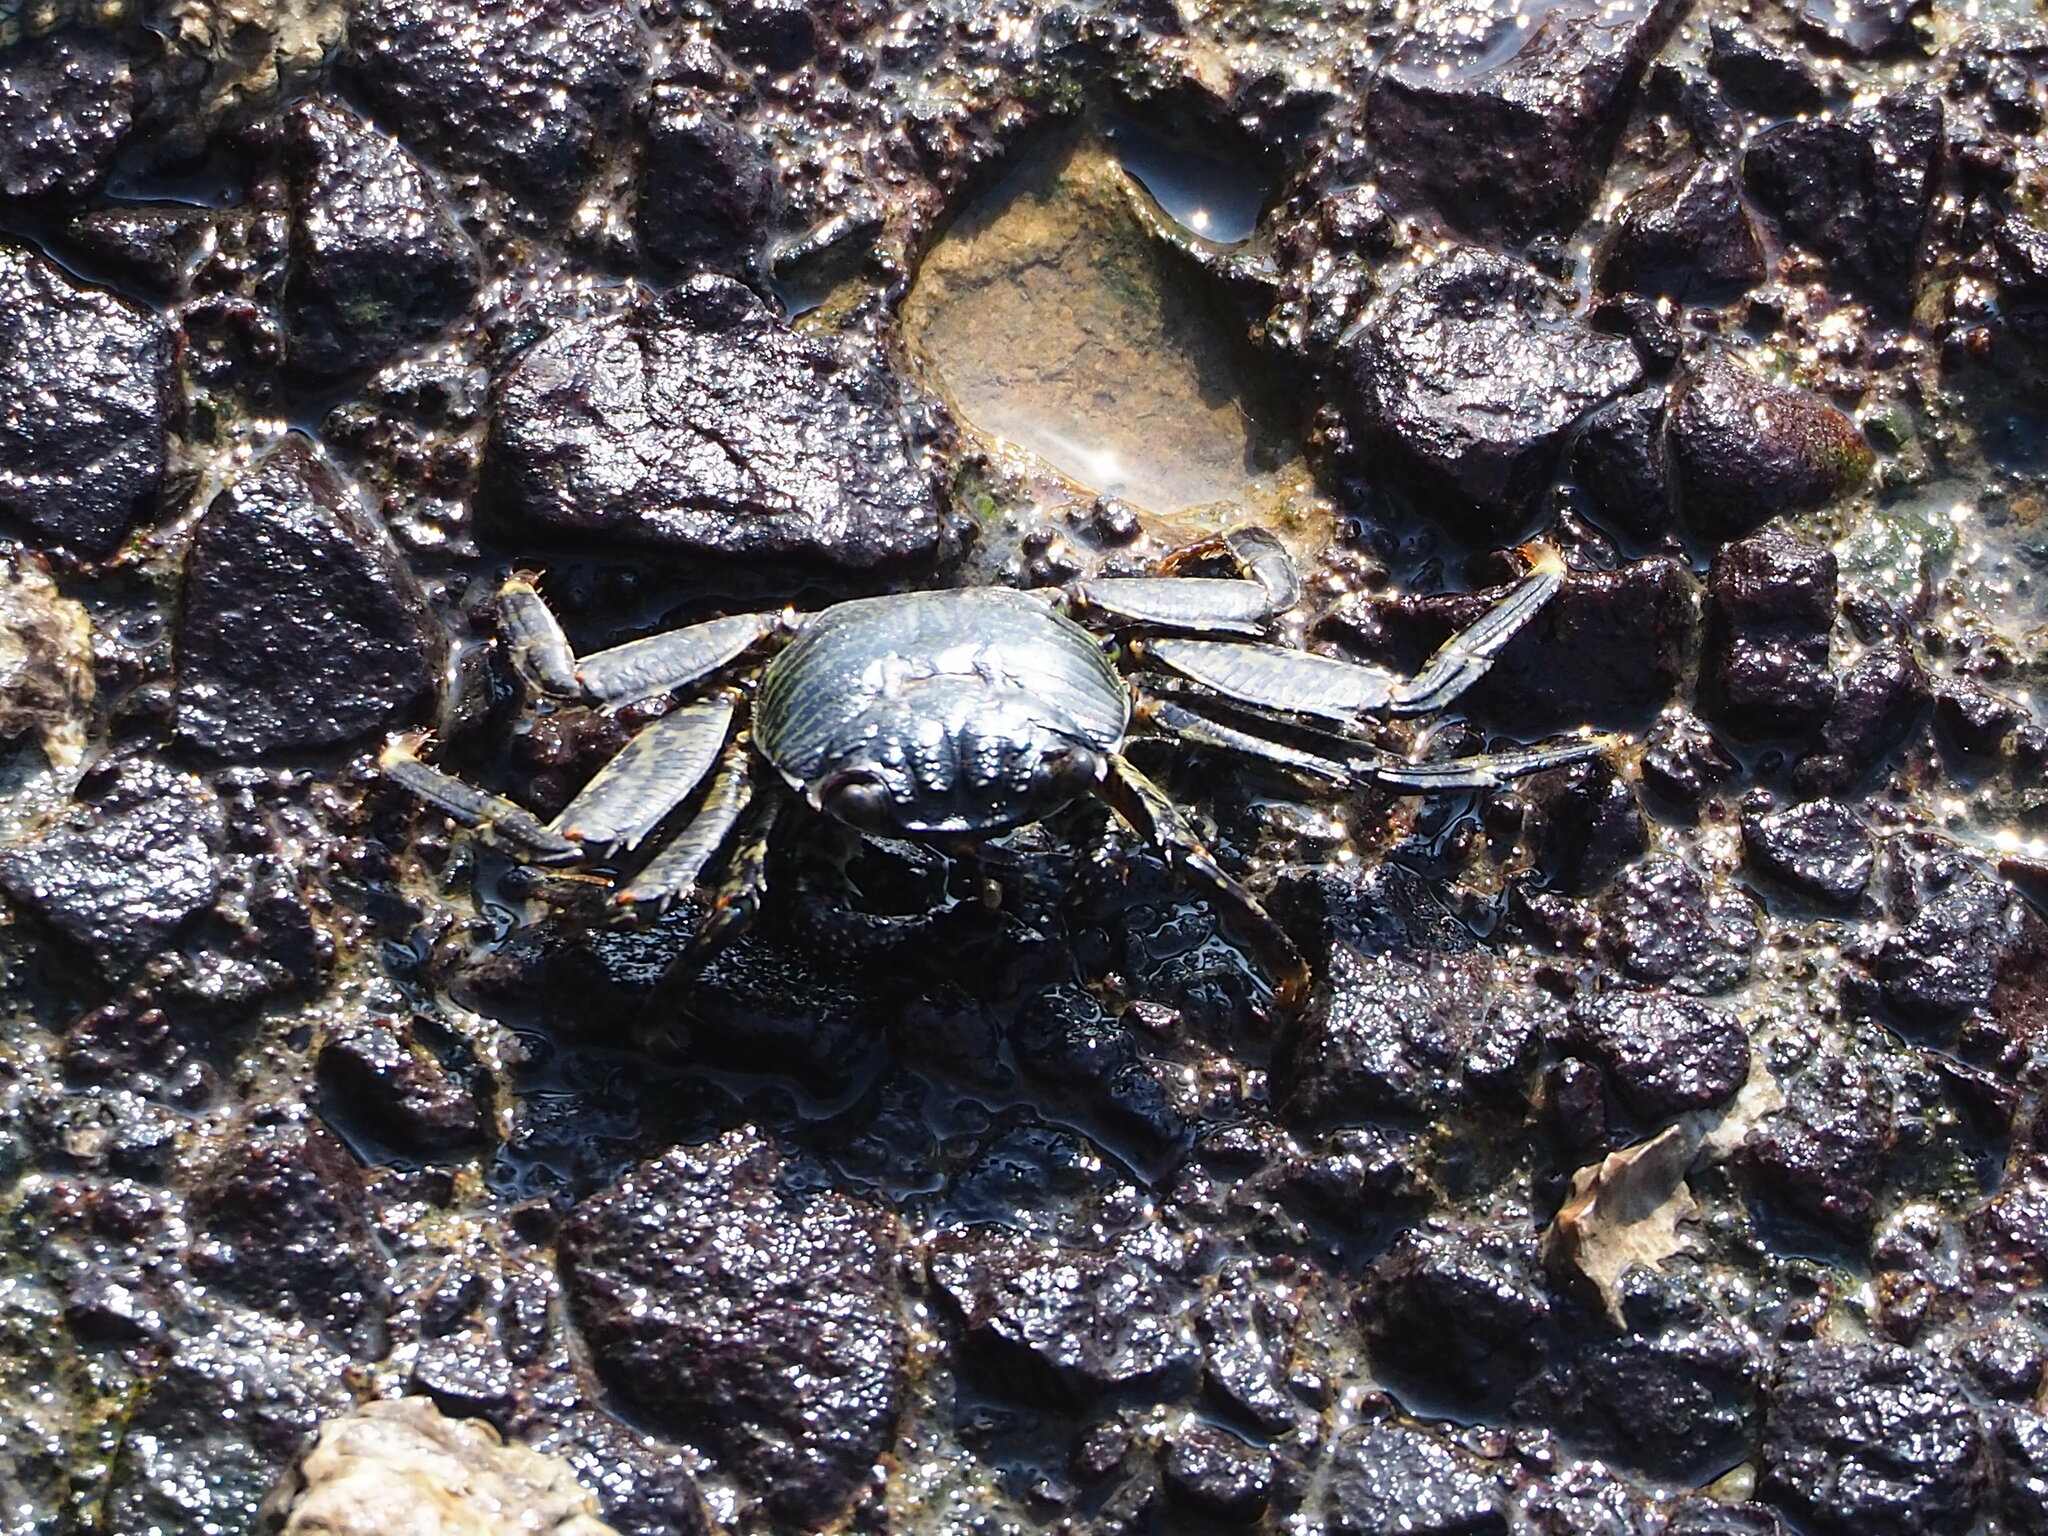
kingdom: Animalia
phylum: Arthropoda
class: Malacostraca
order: Decapoda
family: Grapsidae
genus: Grapsus
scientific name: Grapsus albolineatus
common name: Mottled lightfoot crab
